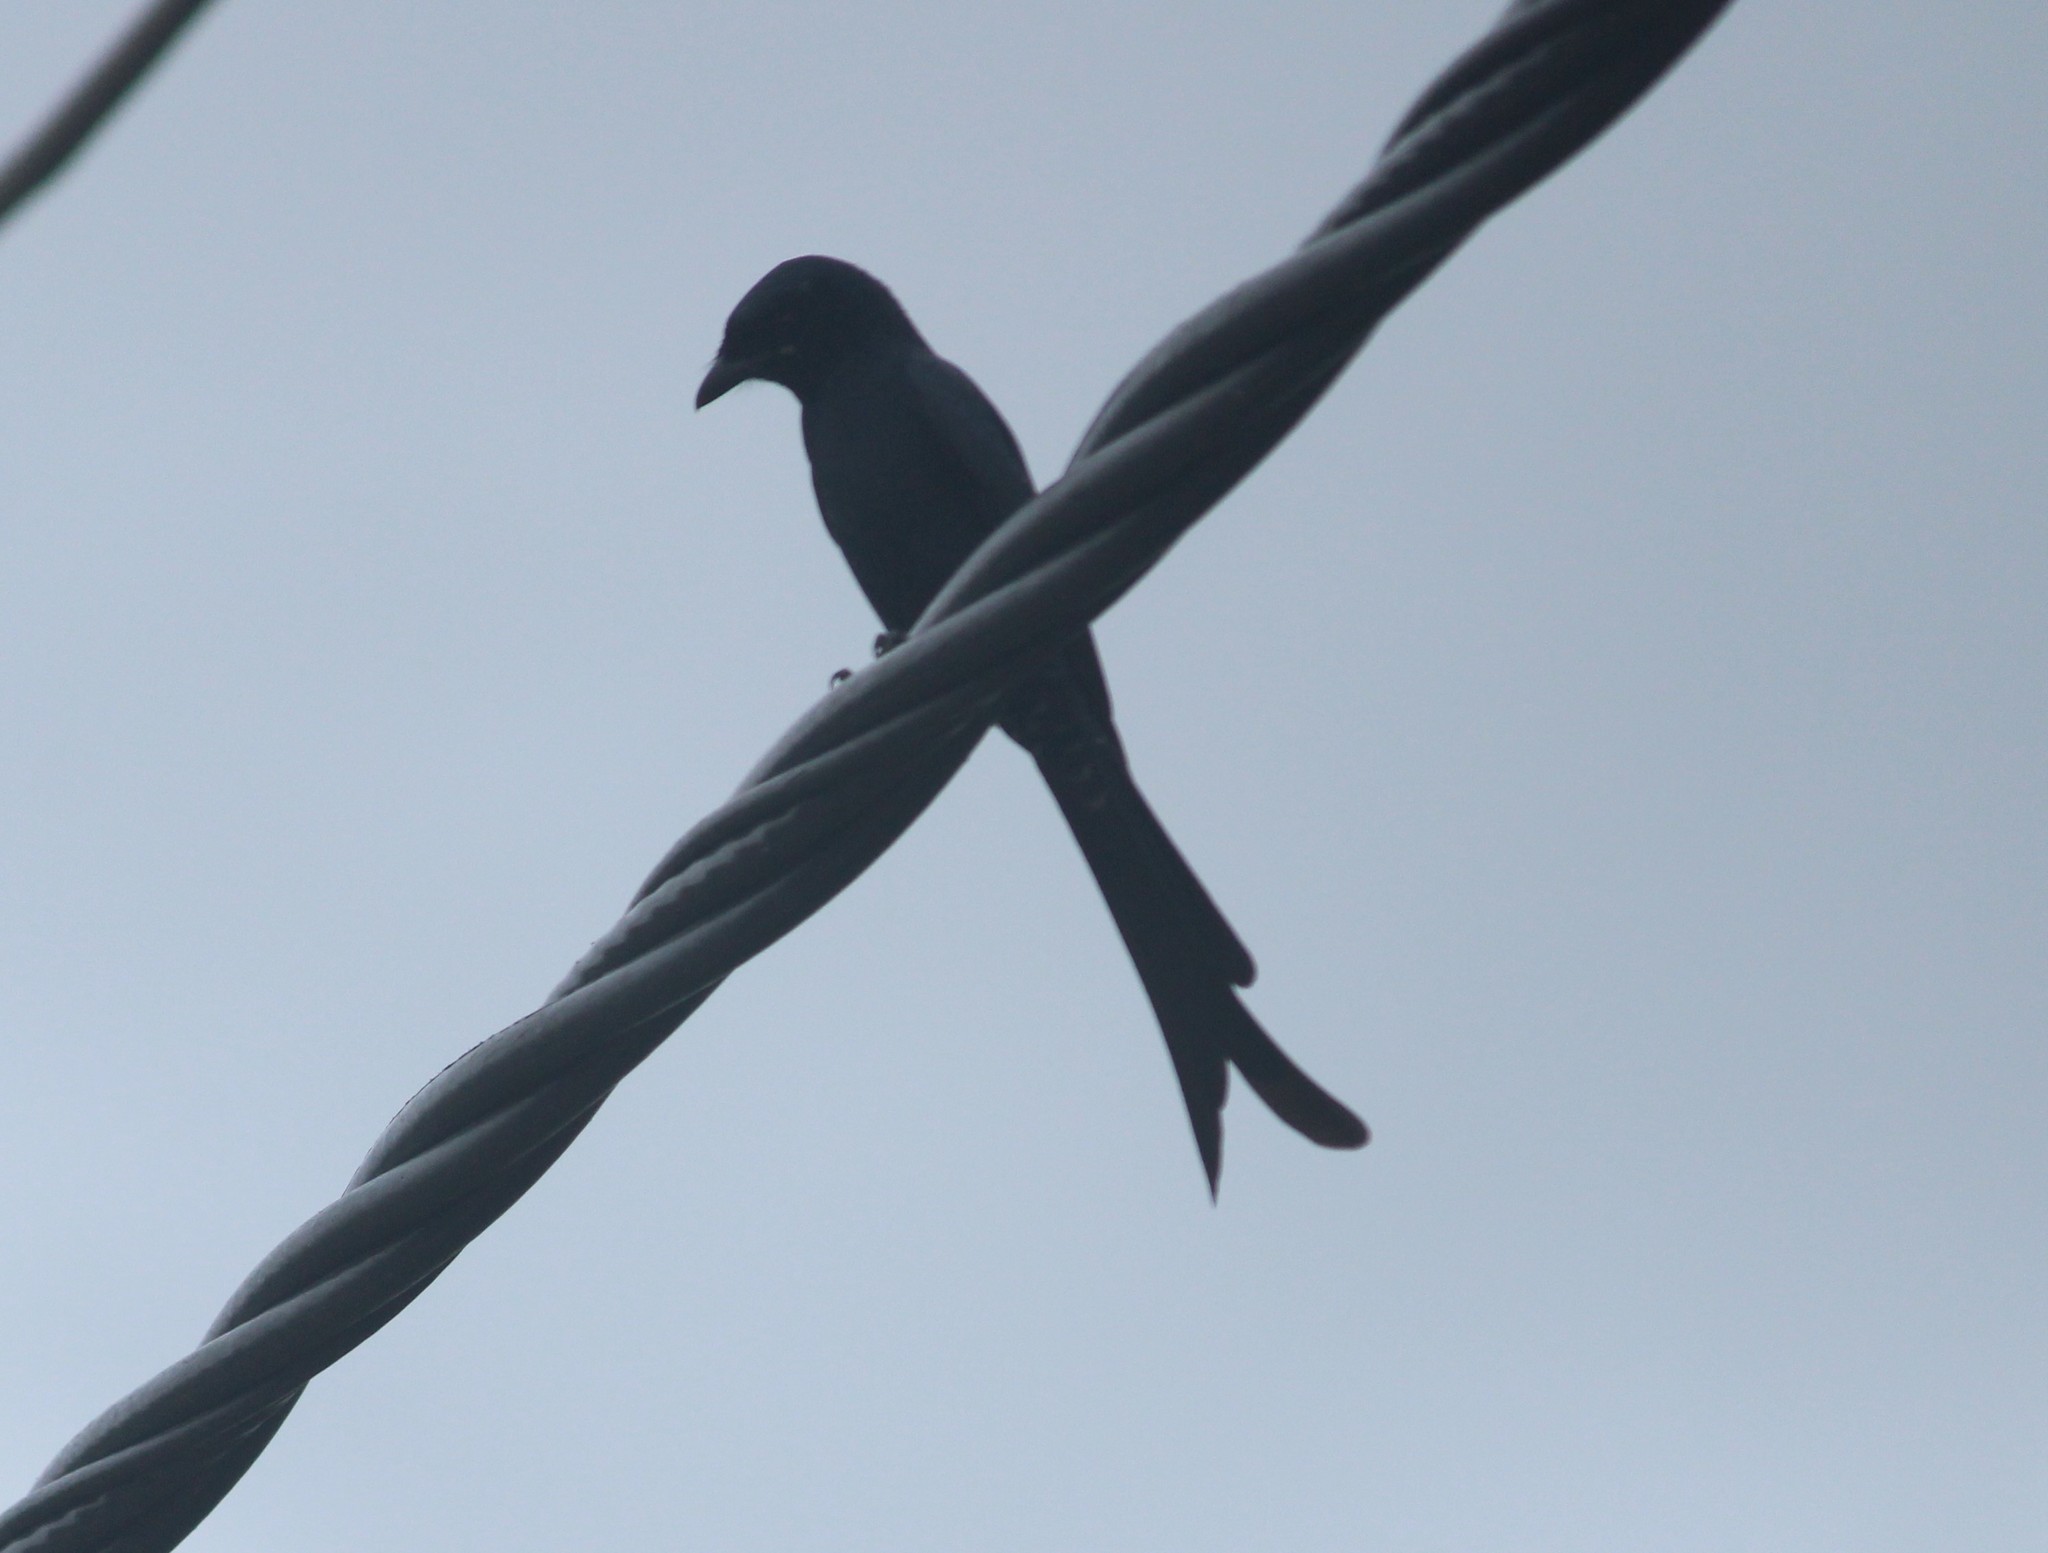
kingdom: Animalia
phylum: Chordata
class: Aves
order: Passeriformes
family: Dicruridae
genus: Dicrurus
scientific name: Dicrurus macrocercus
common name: Black drongo
